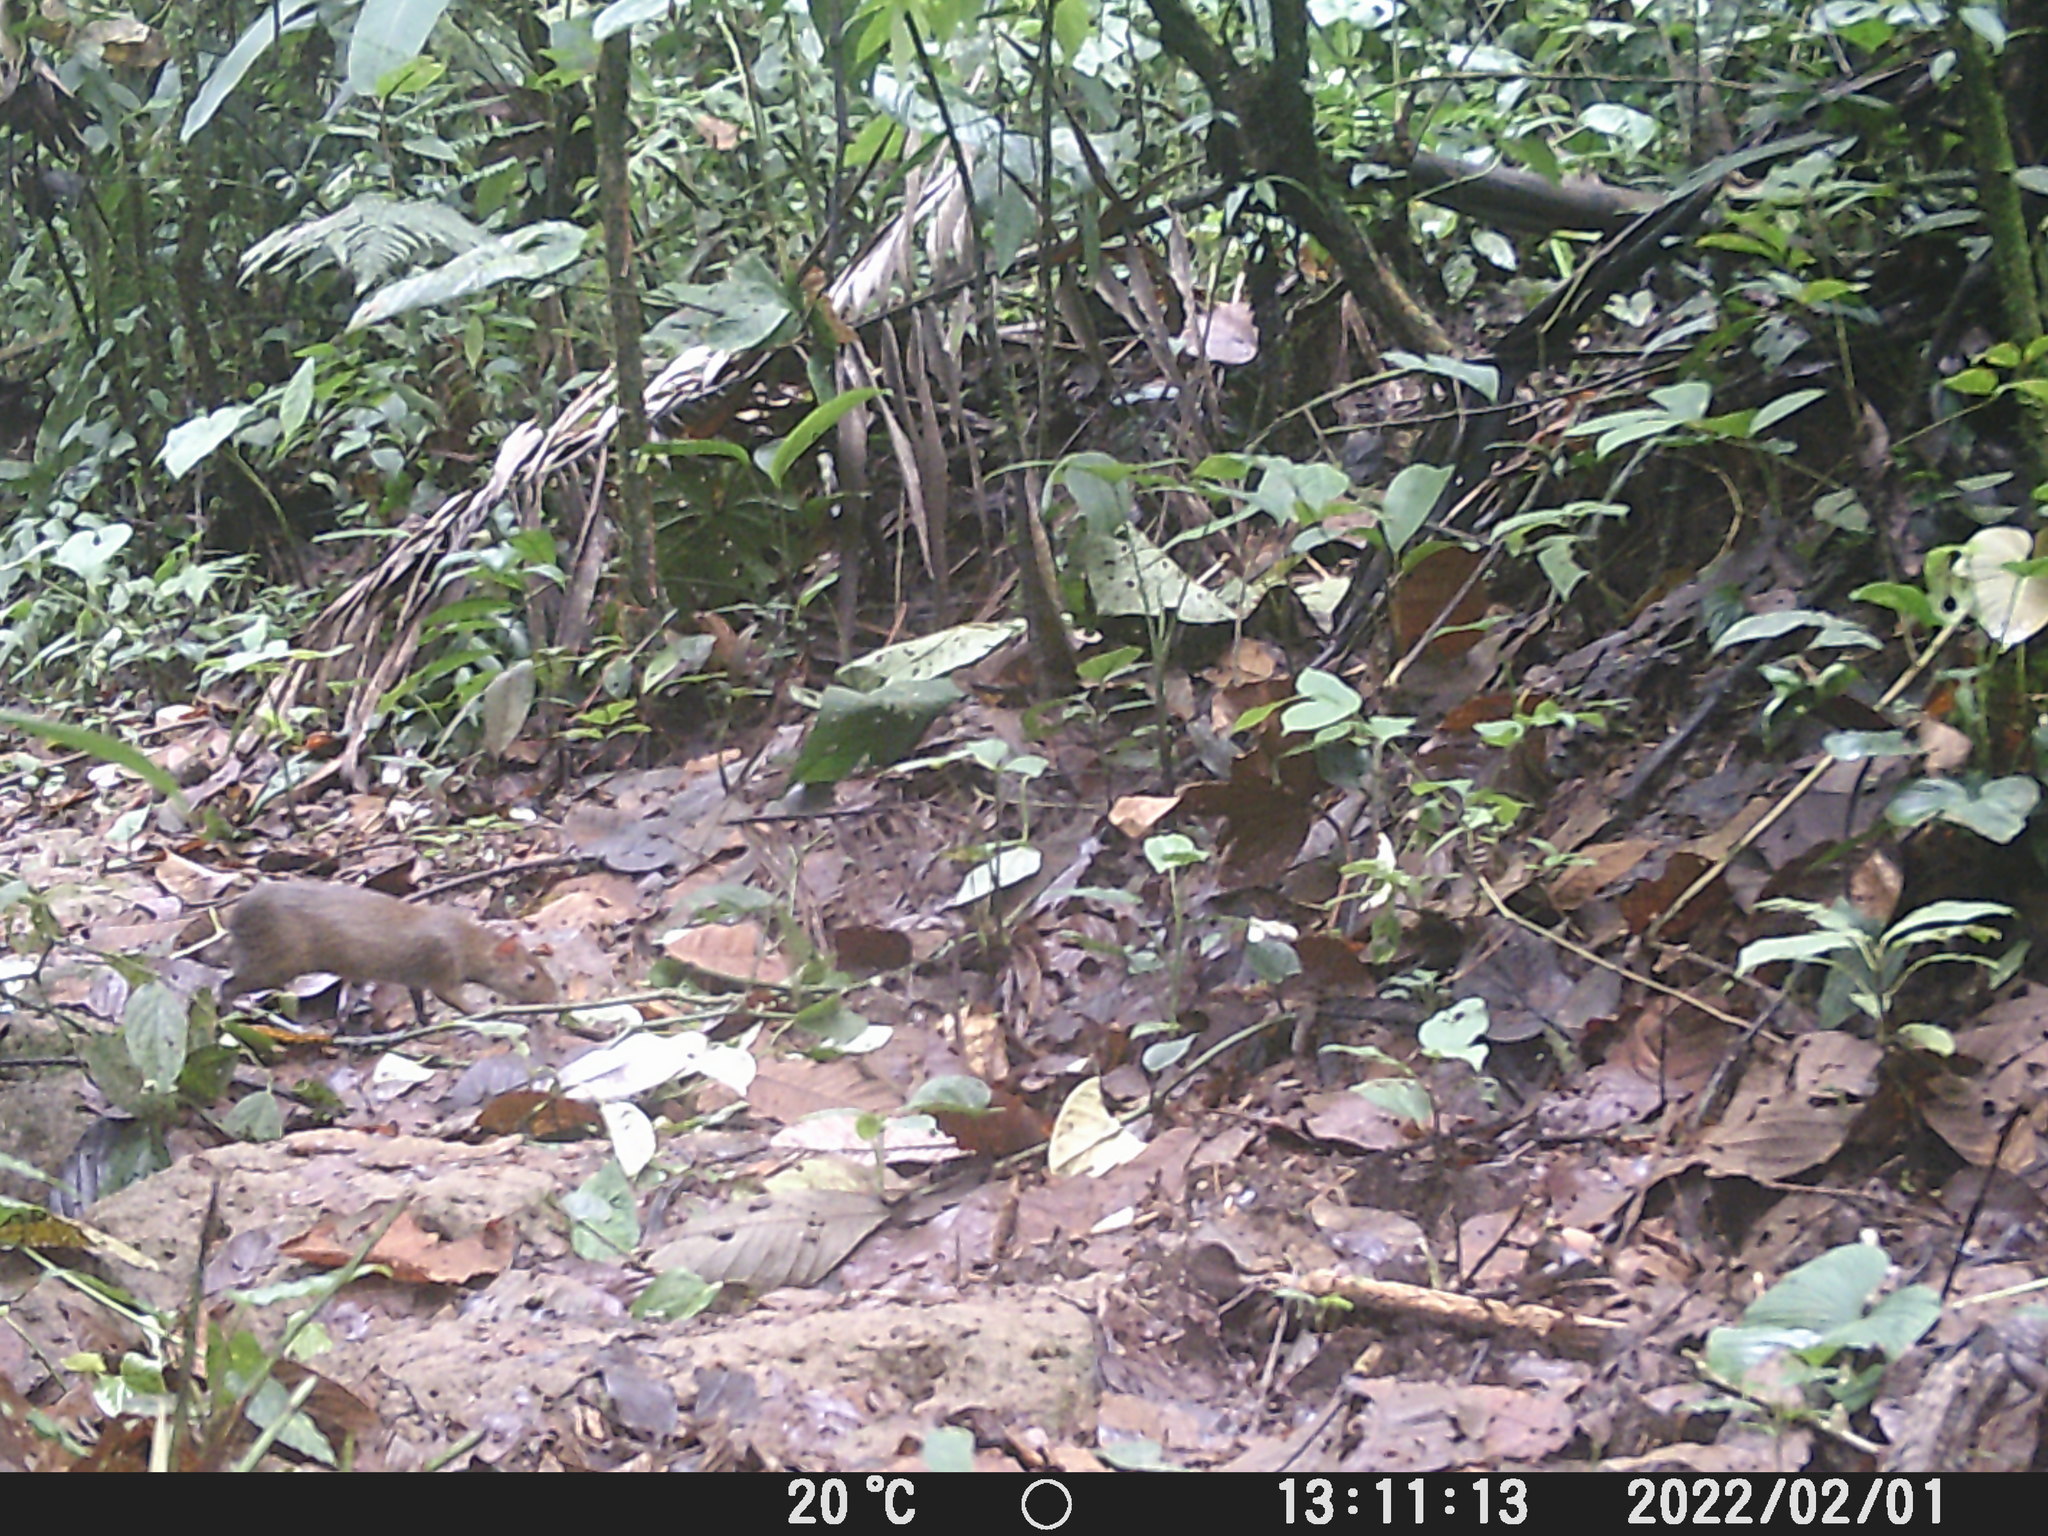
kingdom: Animalia
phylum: Chordata
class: Mammalia
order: Rodentia
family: Dasyproctidae
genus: Dasyprocta
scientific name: Dasyprocta punctata
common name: Central american agouti
